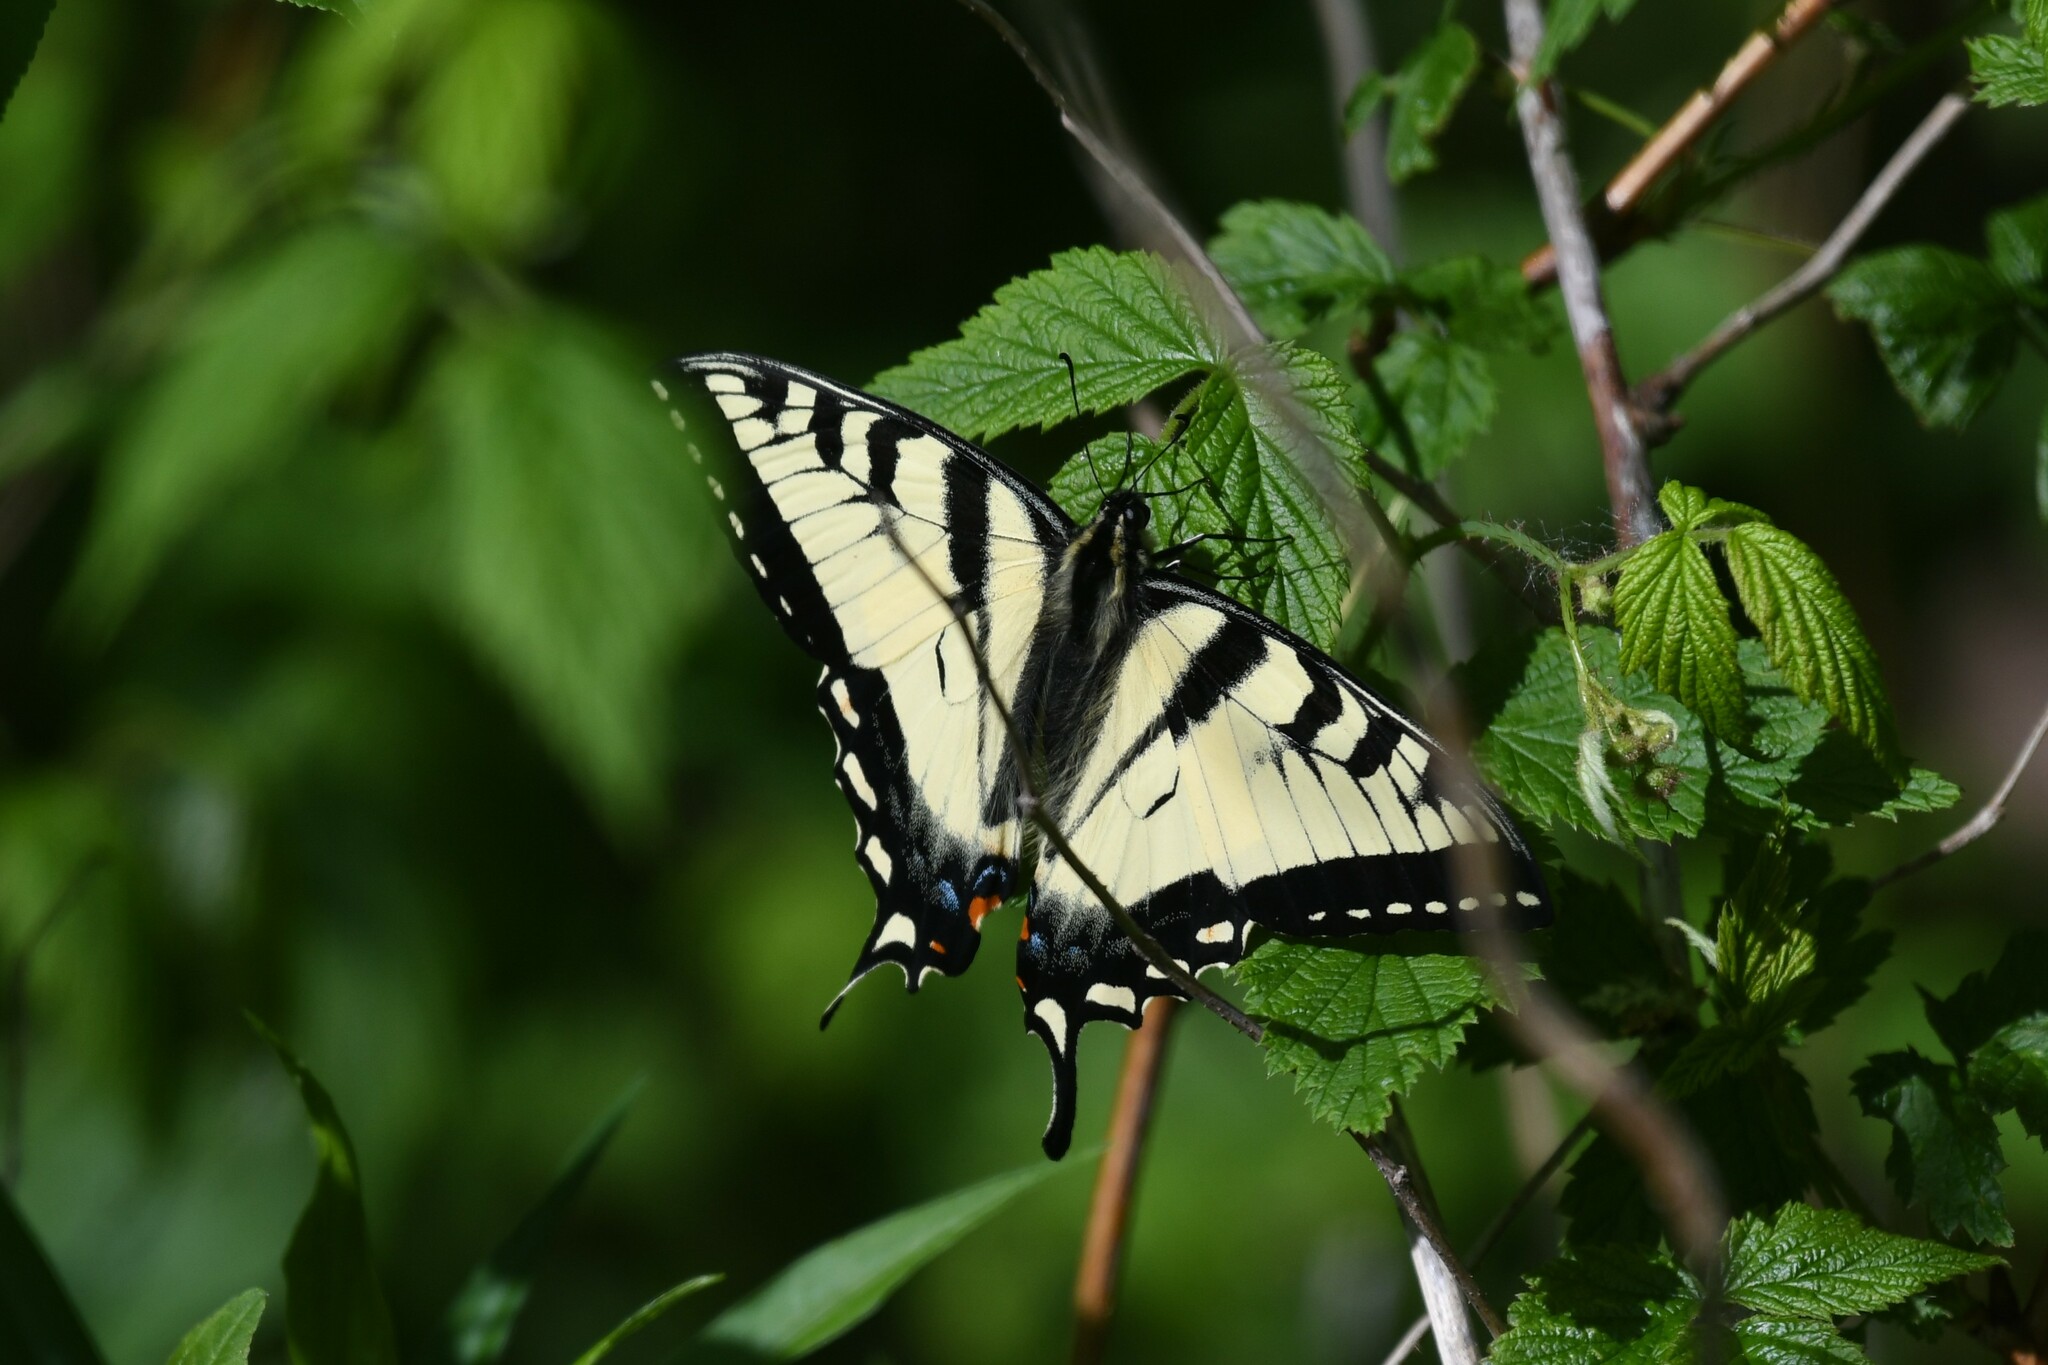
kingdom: Animalia
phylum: Arthropoda
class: Insecta
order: Lepidoptera
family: Papilionidae
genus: Papilio
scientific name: Papilio canadensis
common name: Canadian tiger swallowtail
